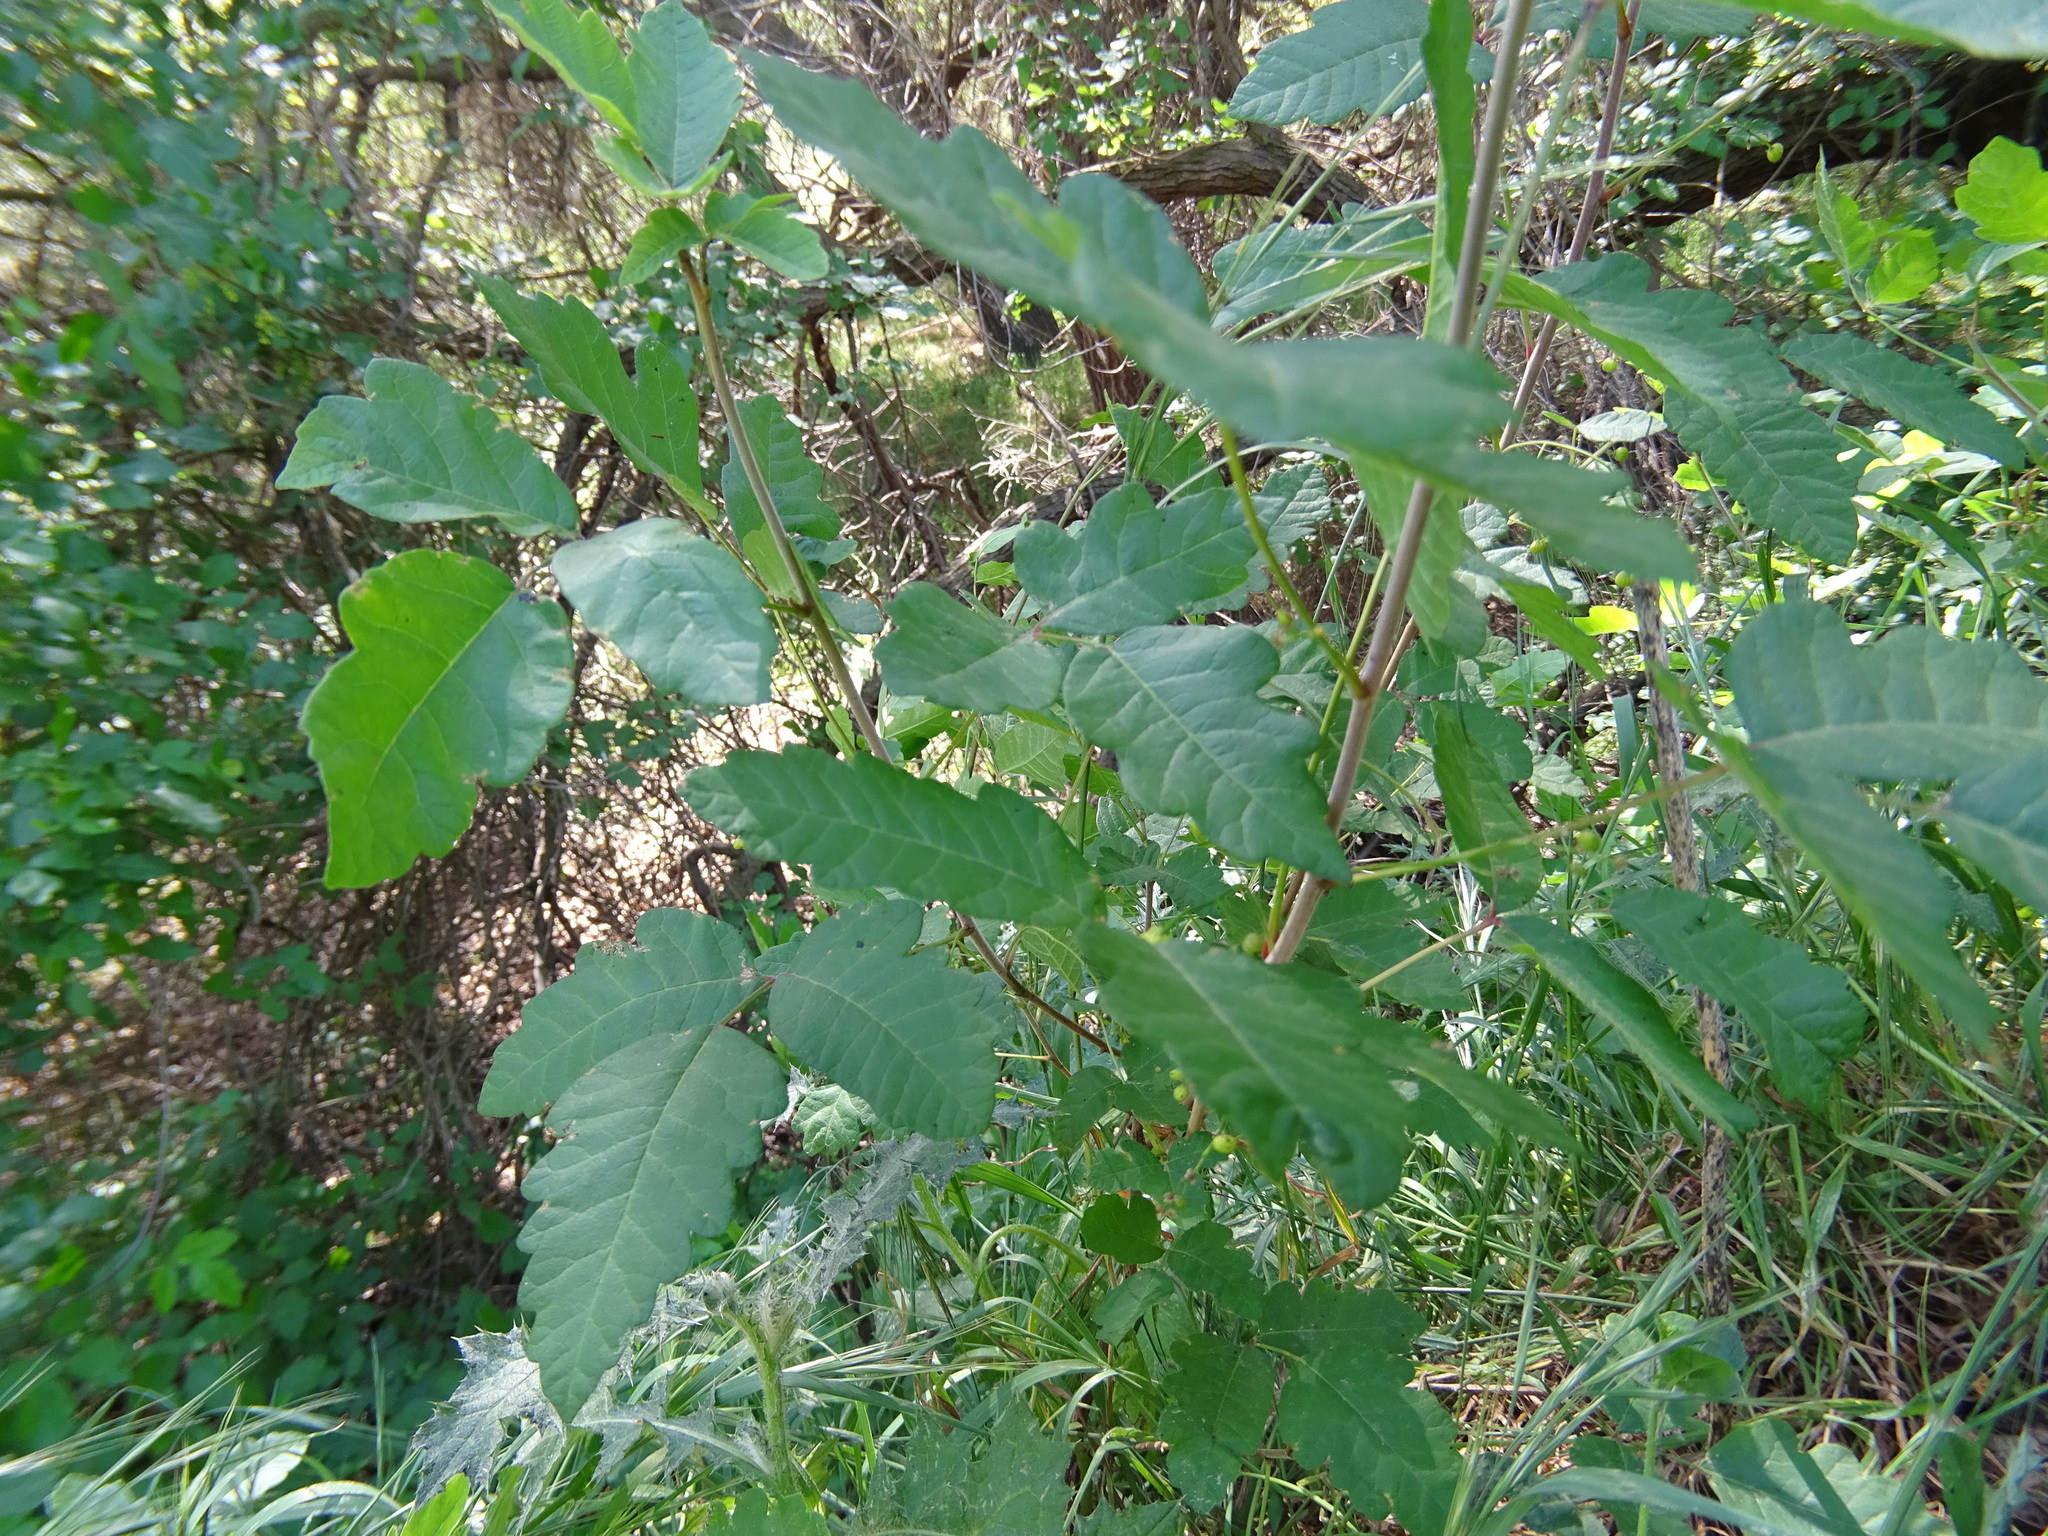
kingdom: Plantae
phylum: Tracheophyta
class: Magnoliopsida
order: Sapindales
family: Anacardiaceae
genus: Toxicodendron
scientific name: Toxicodendron diversilobum
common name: Pacific poison-oak
